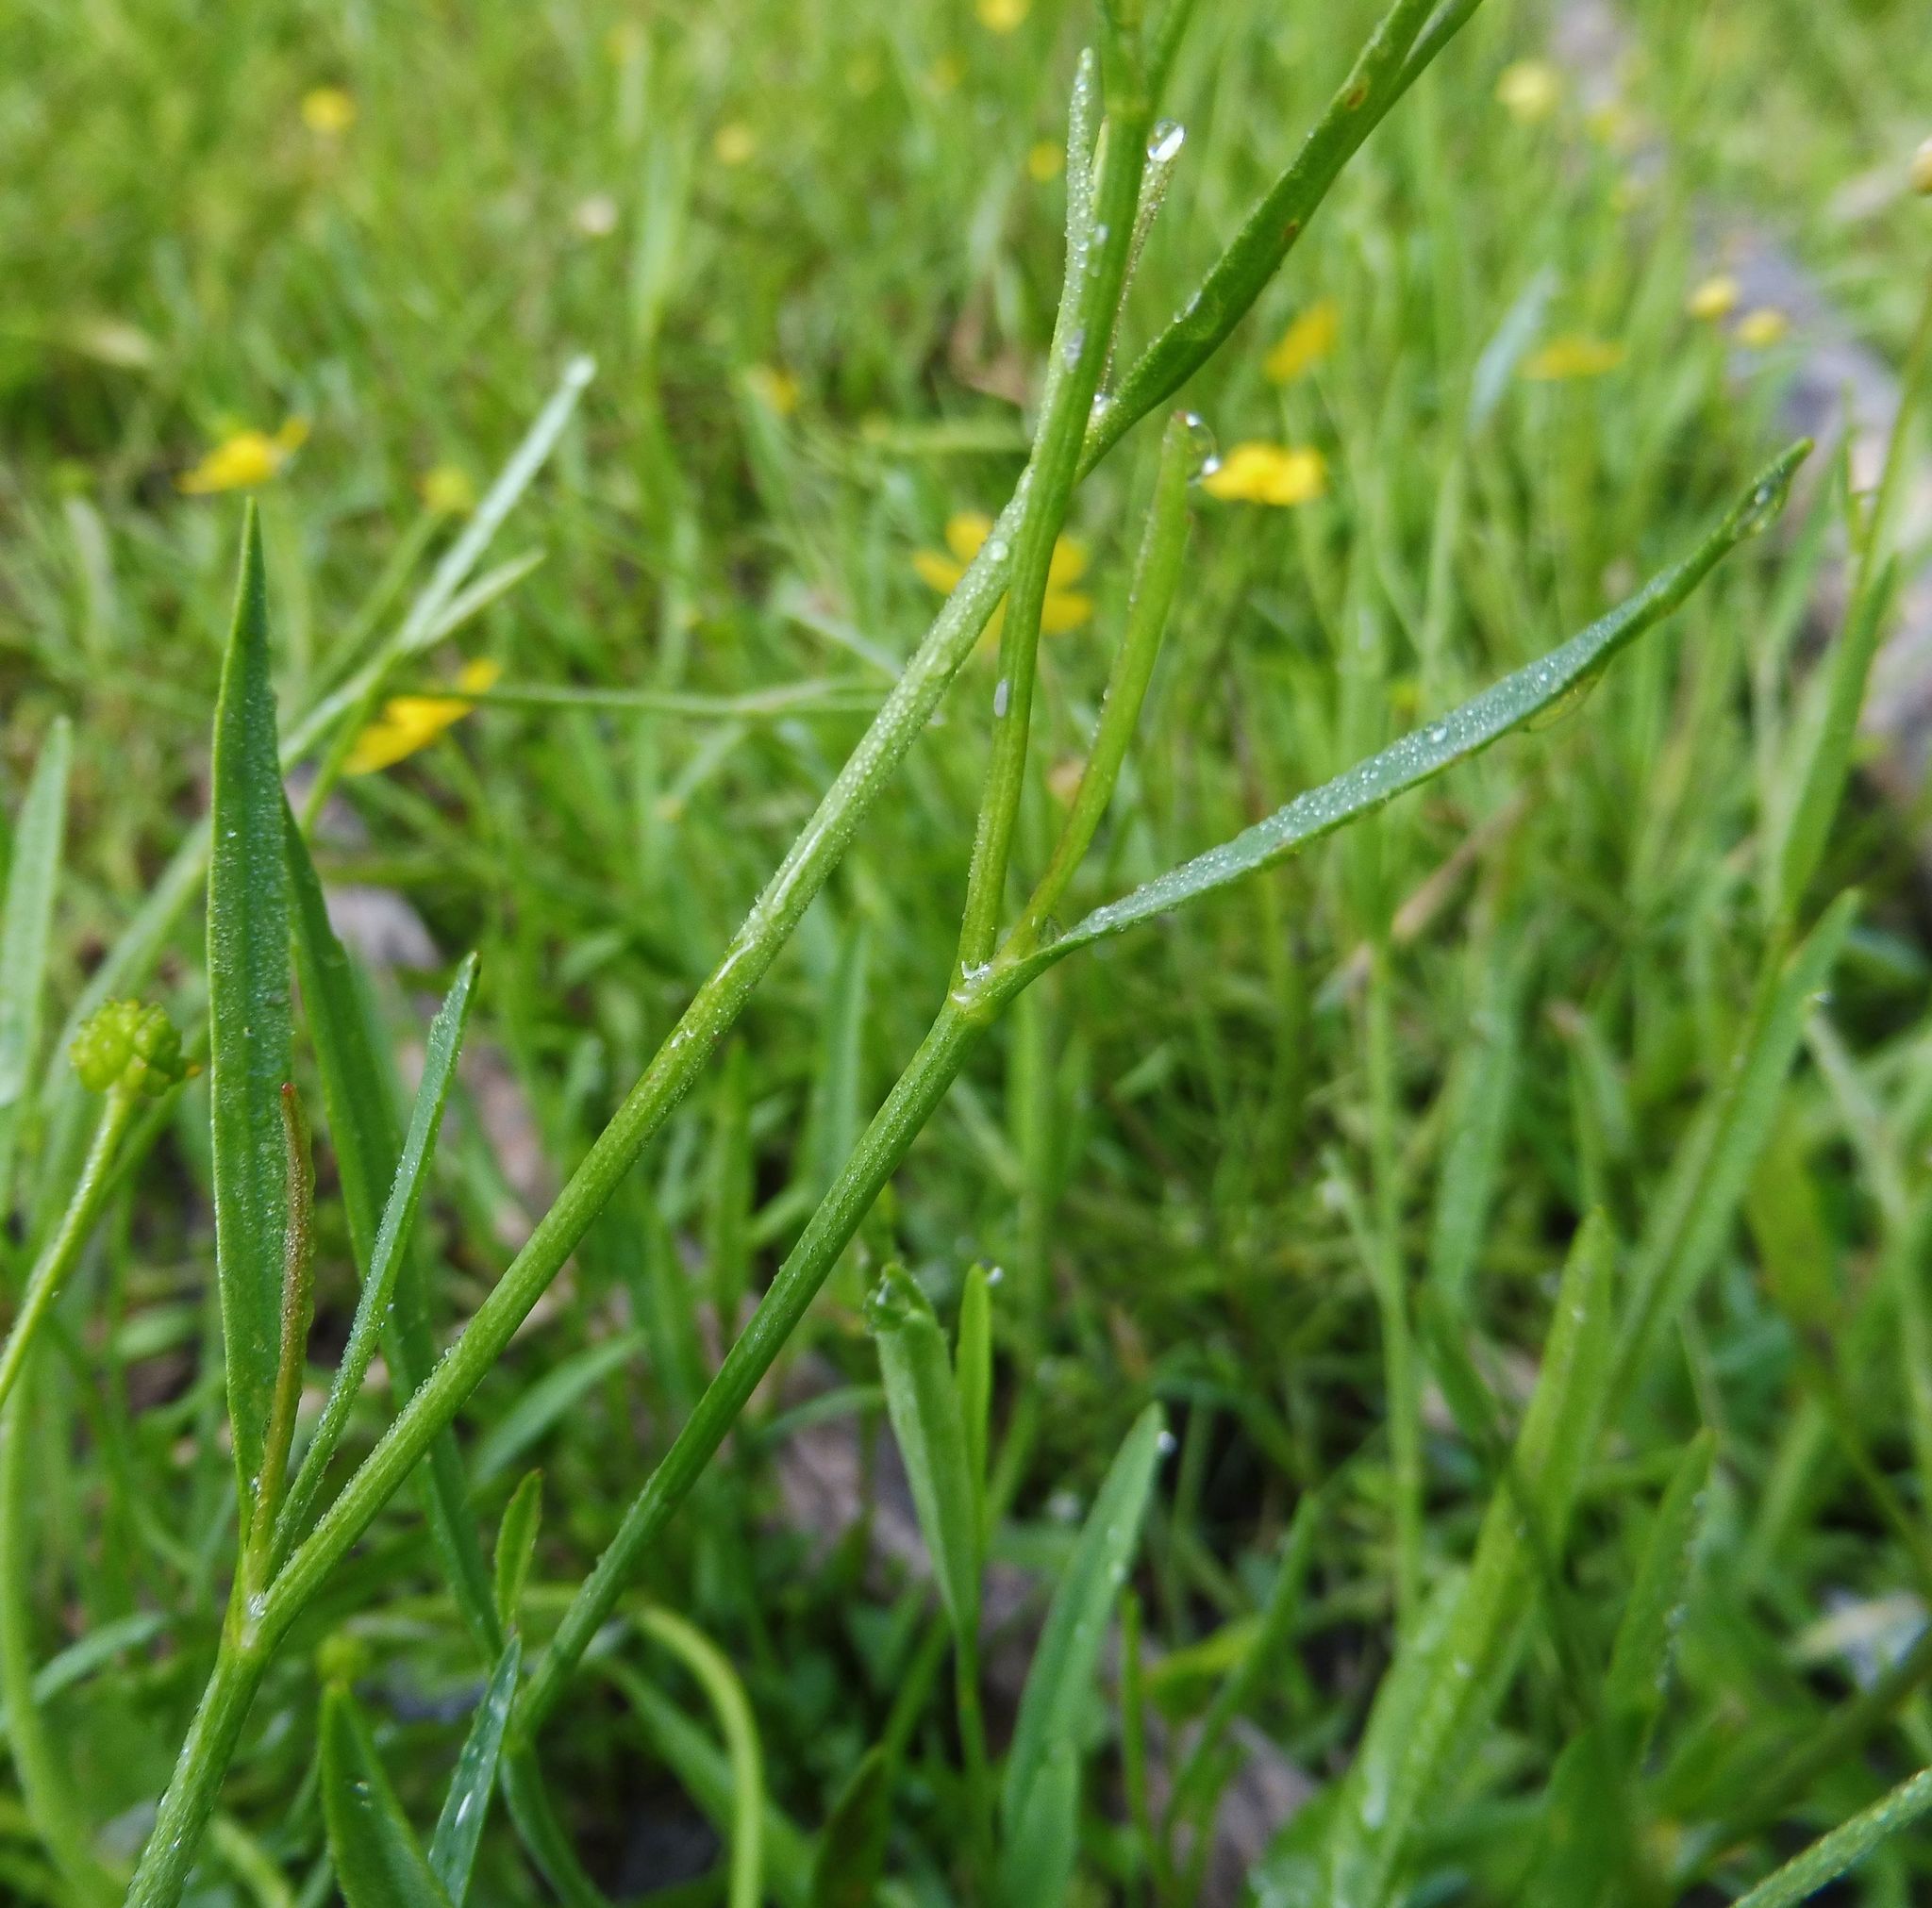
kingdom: Plantae
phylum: Tracheophyta
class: Magnoliopsida
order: Ranunculales
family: Ranunculaceae
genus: Ranunculus
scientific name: Ranunculus flammula
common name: Lesser spearwort
